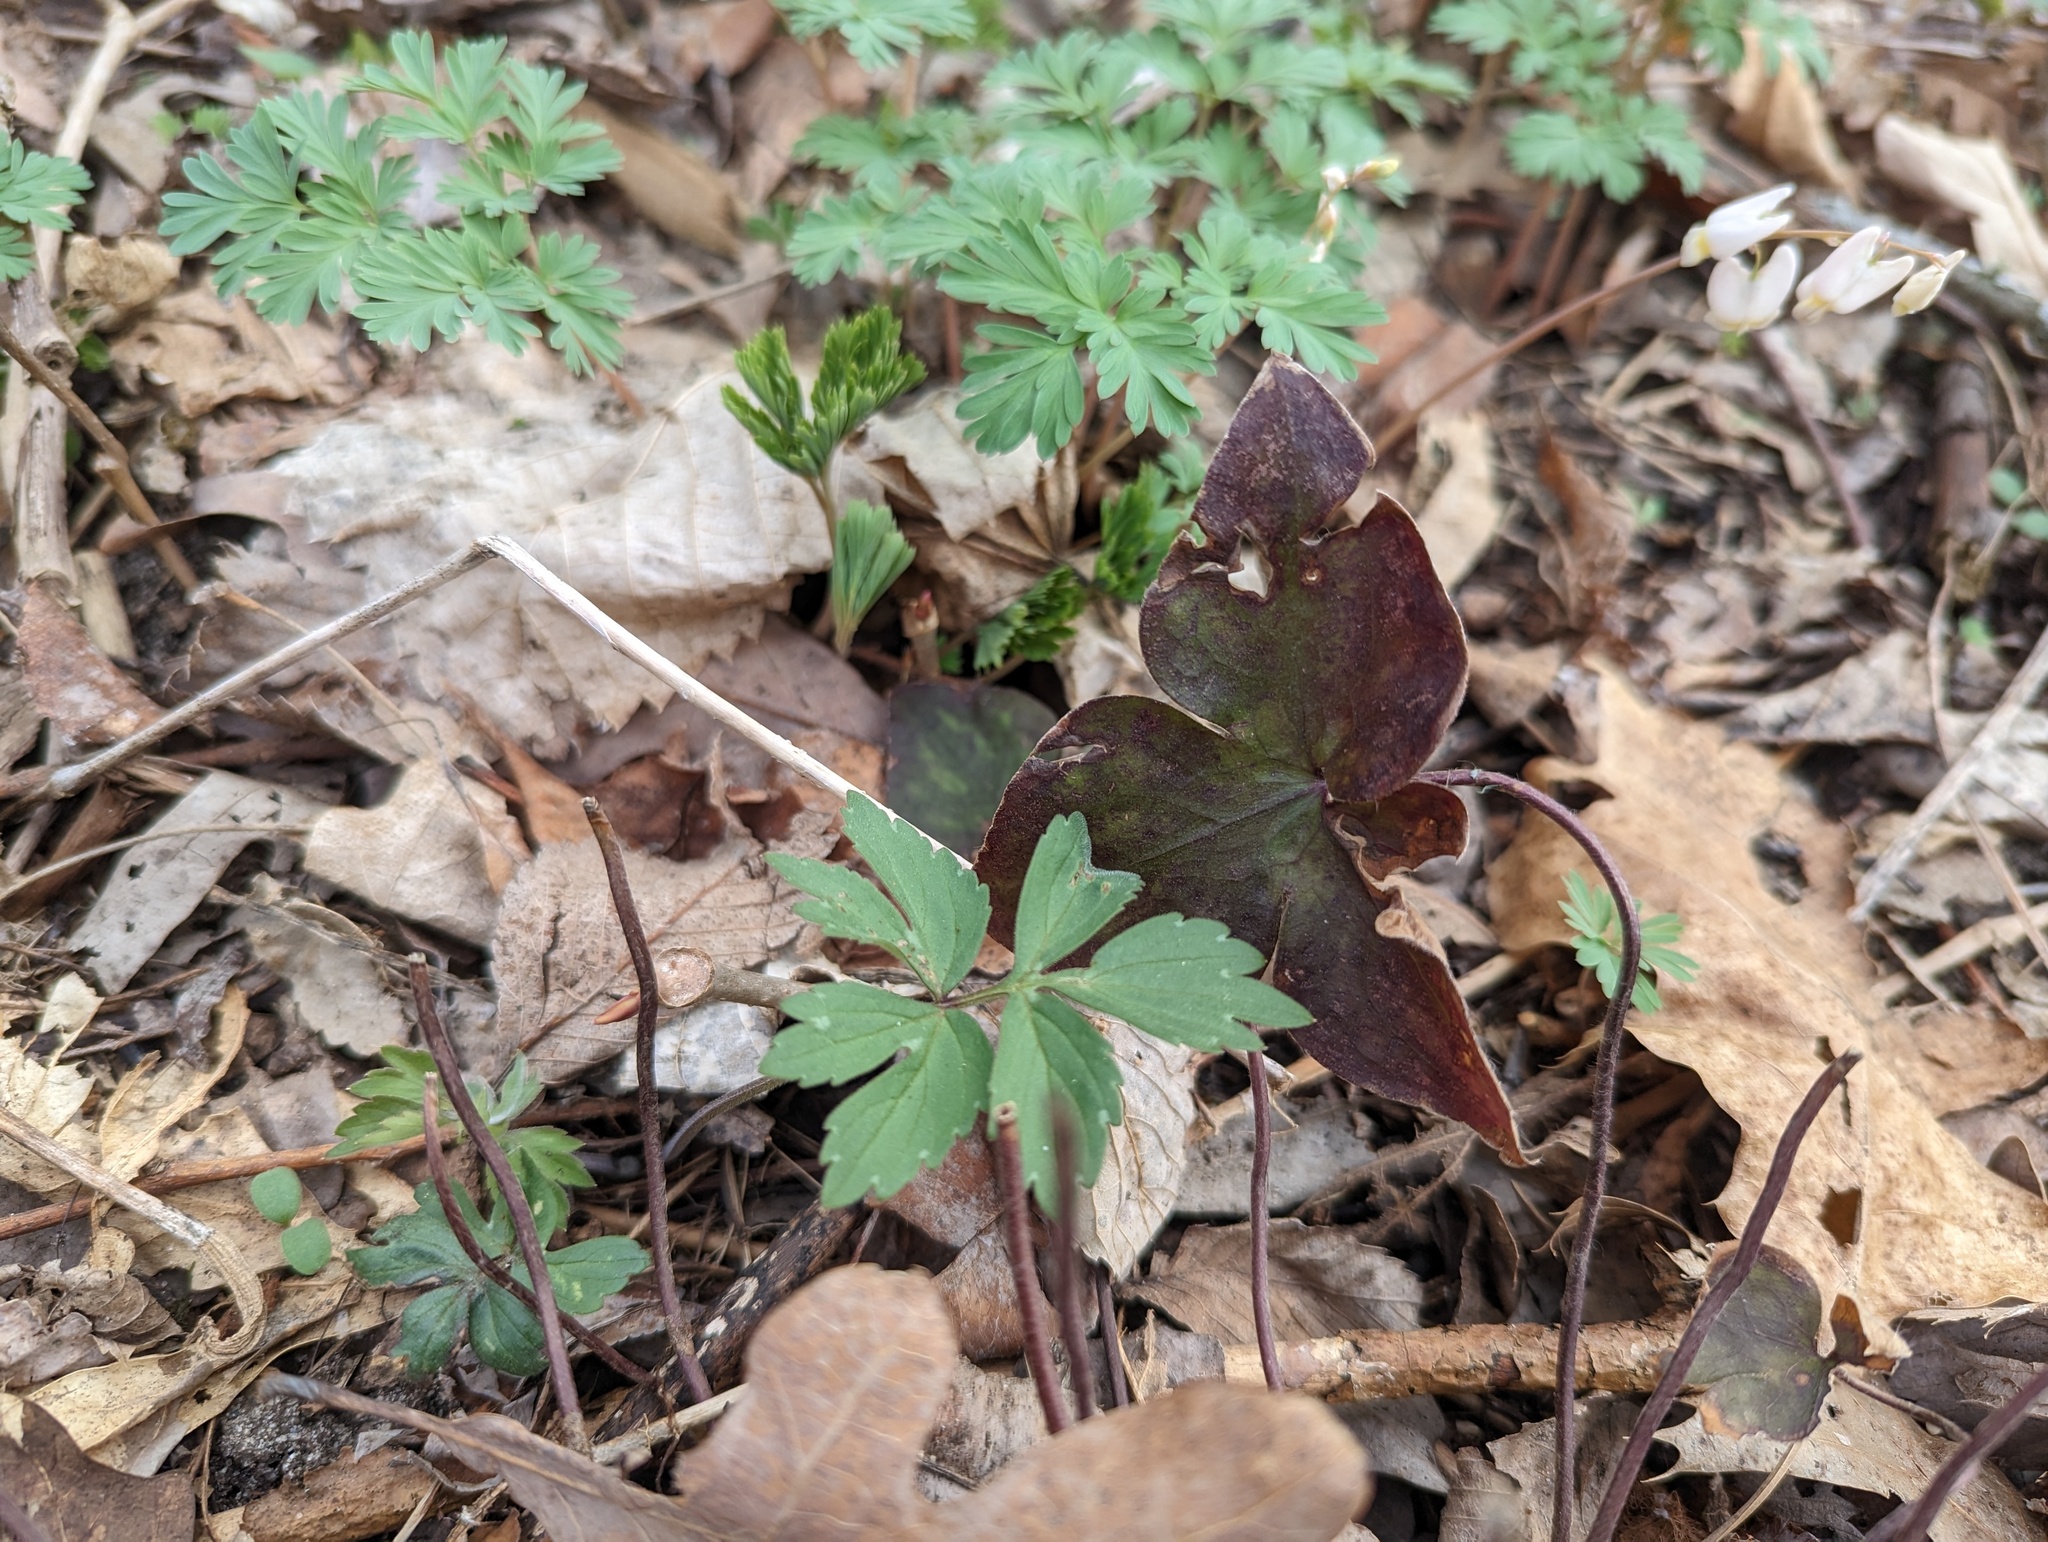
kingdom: Plantae
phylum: Tracheophyta
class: Magnoliopsida
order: Ranunculales
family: Ranunculaceae
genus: Hepatica
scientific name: Hepatica acutiloba
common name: Sharp-lobed hepatica
